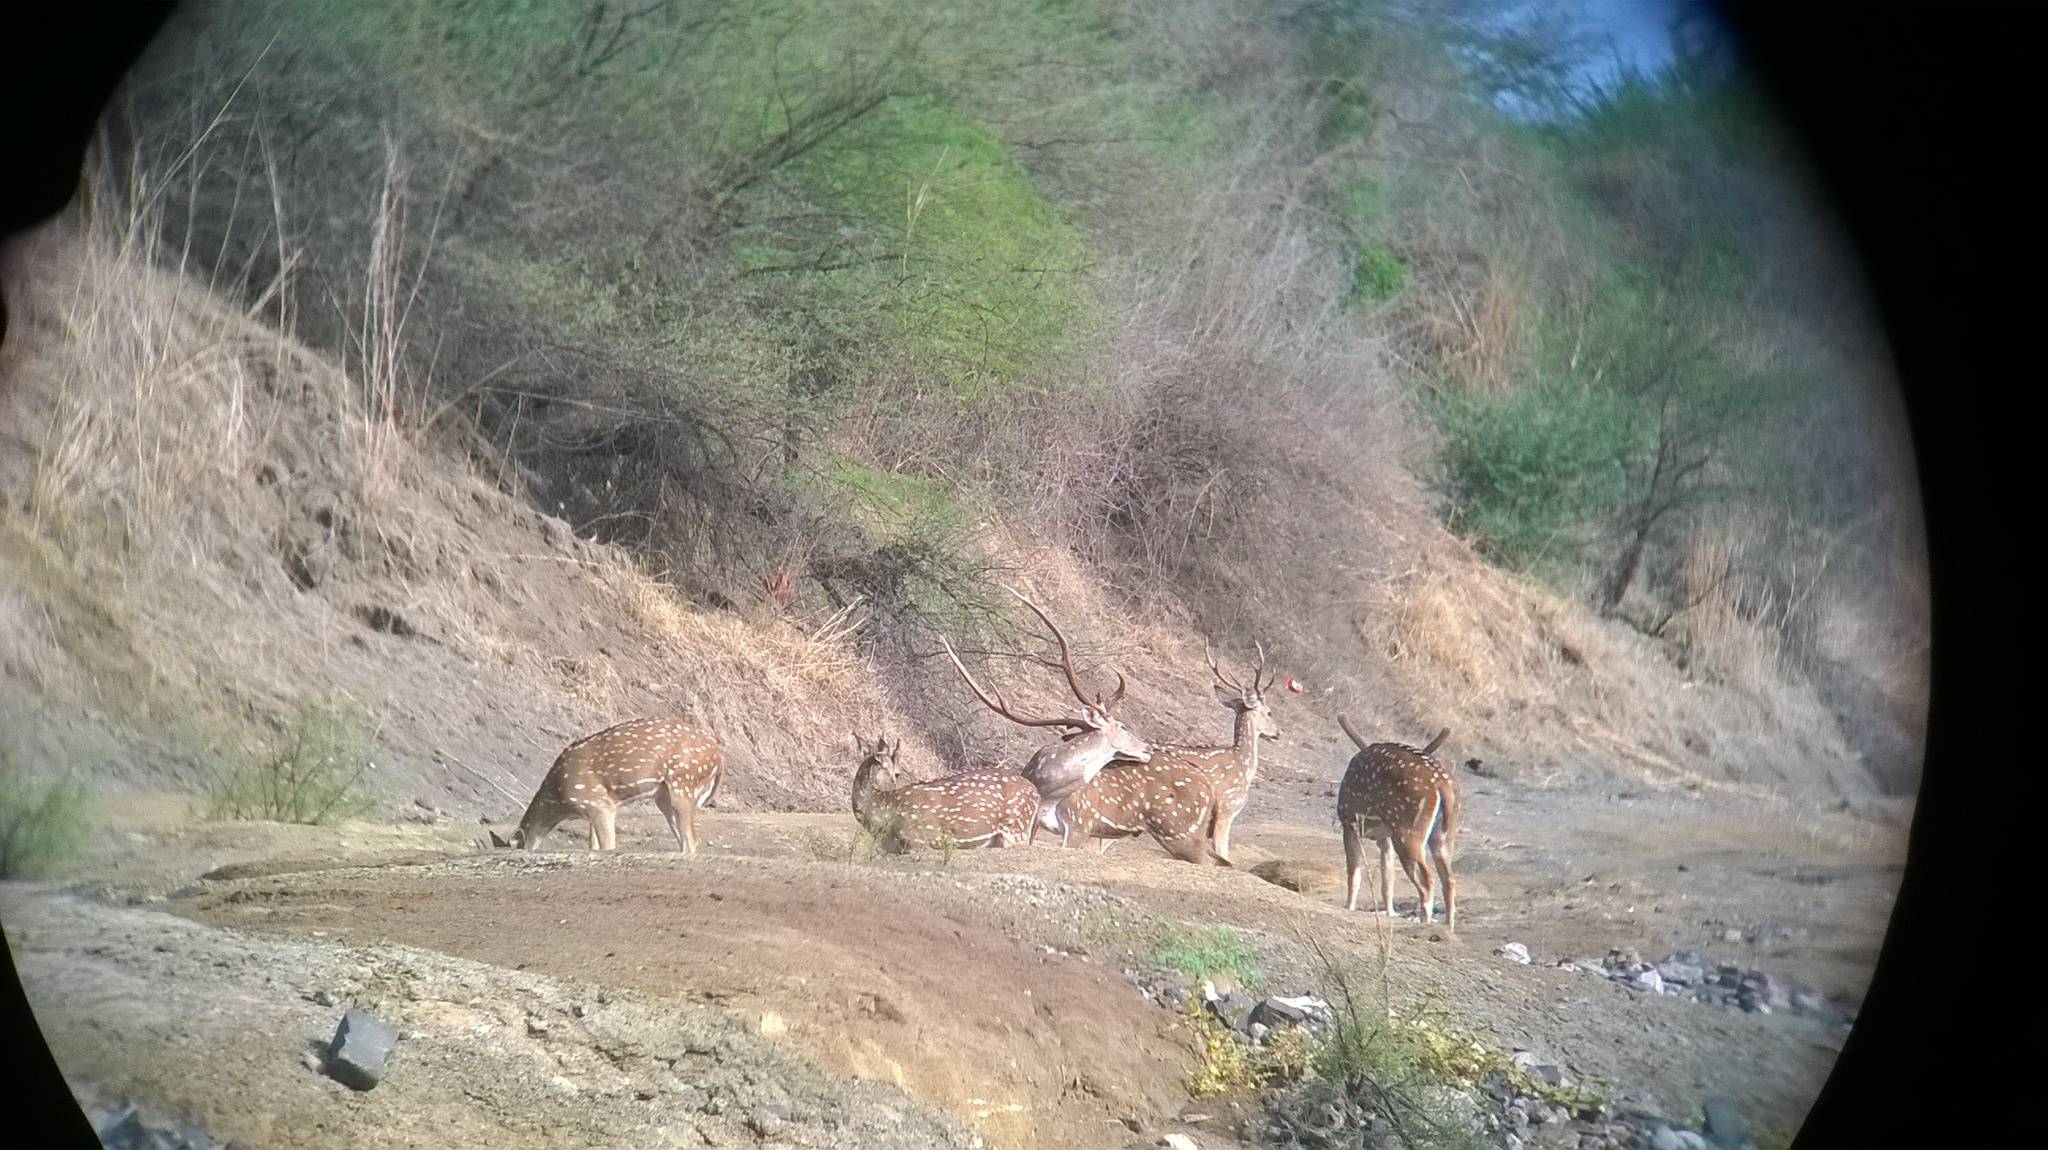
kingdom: Animalia
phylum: Chordata
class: Mammalia
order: Artiodactyla
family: Cervidae
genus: Axis
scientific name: Axis axis
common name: Chital
